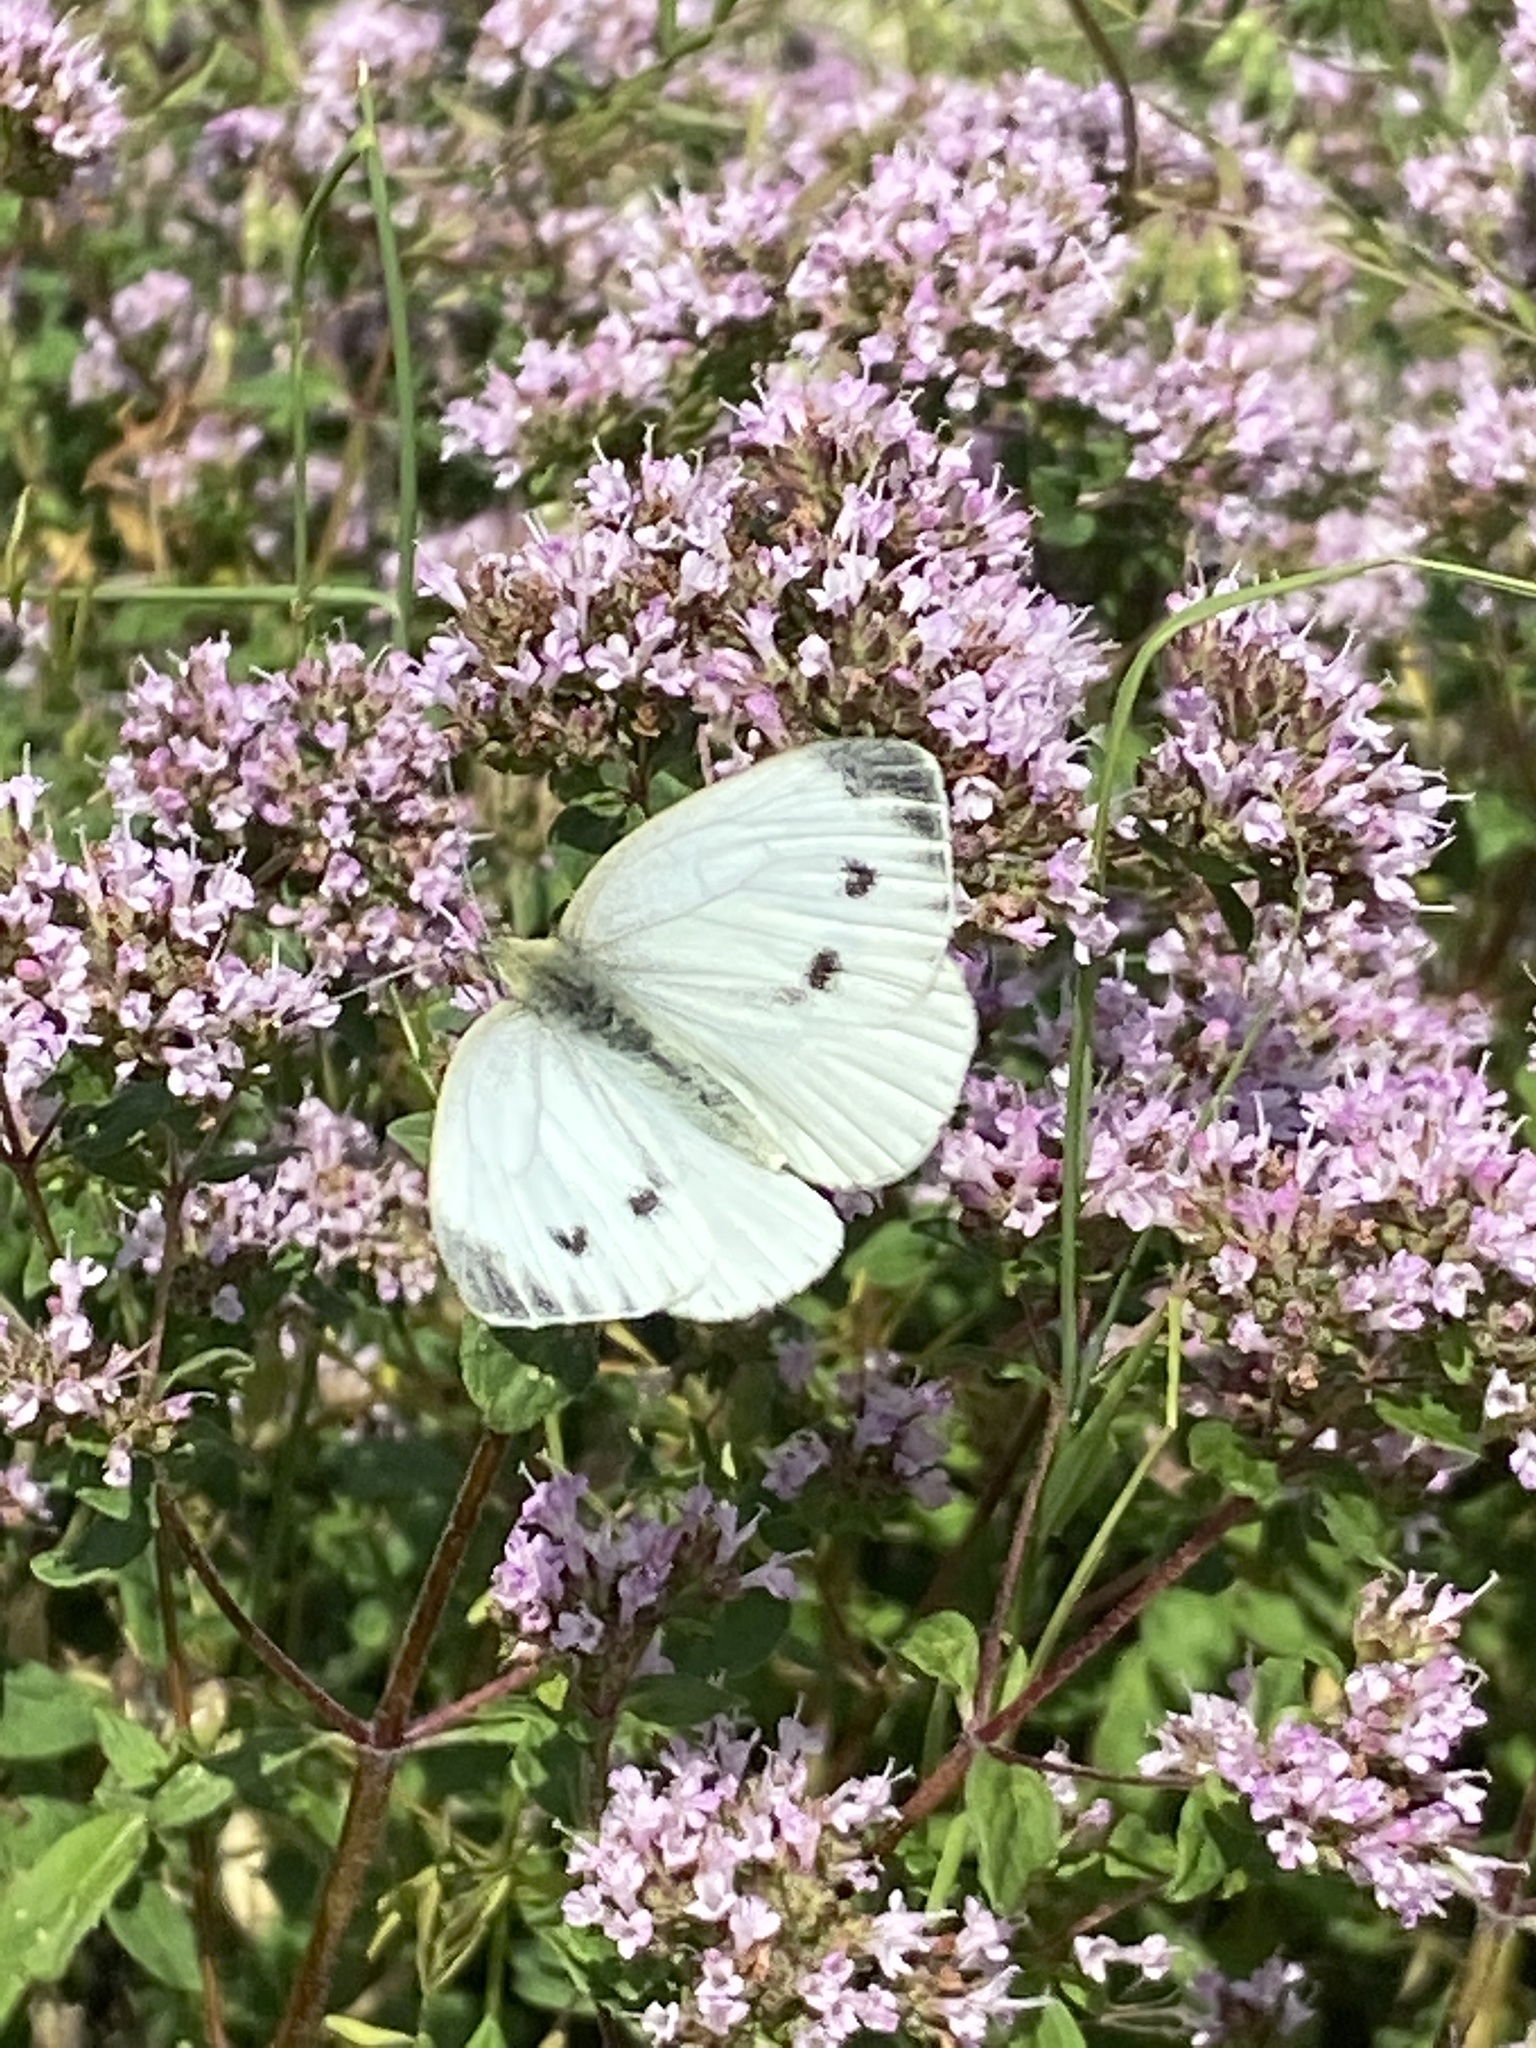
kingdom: Animalia
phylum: Arthropoda
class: Insecta
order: Lepidoptera
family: Pieridae
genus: Pieris
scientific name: Pieris napi
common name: Green-veined white
